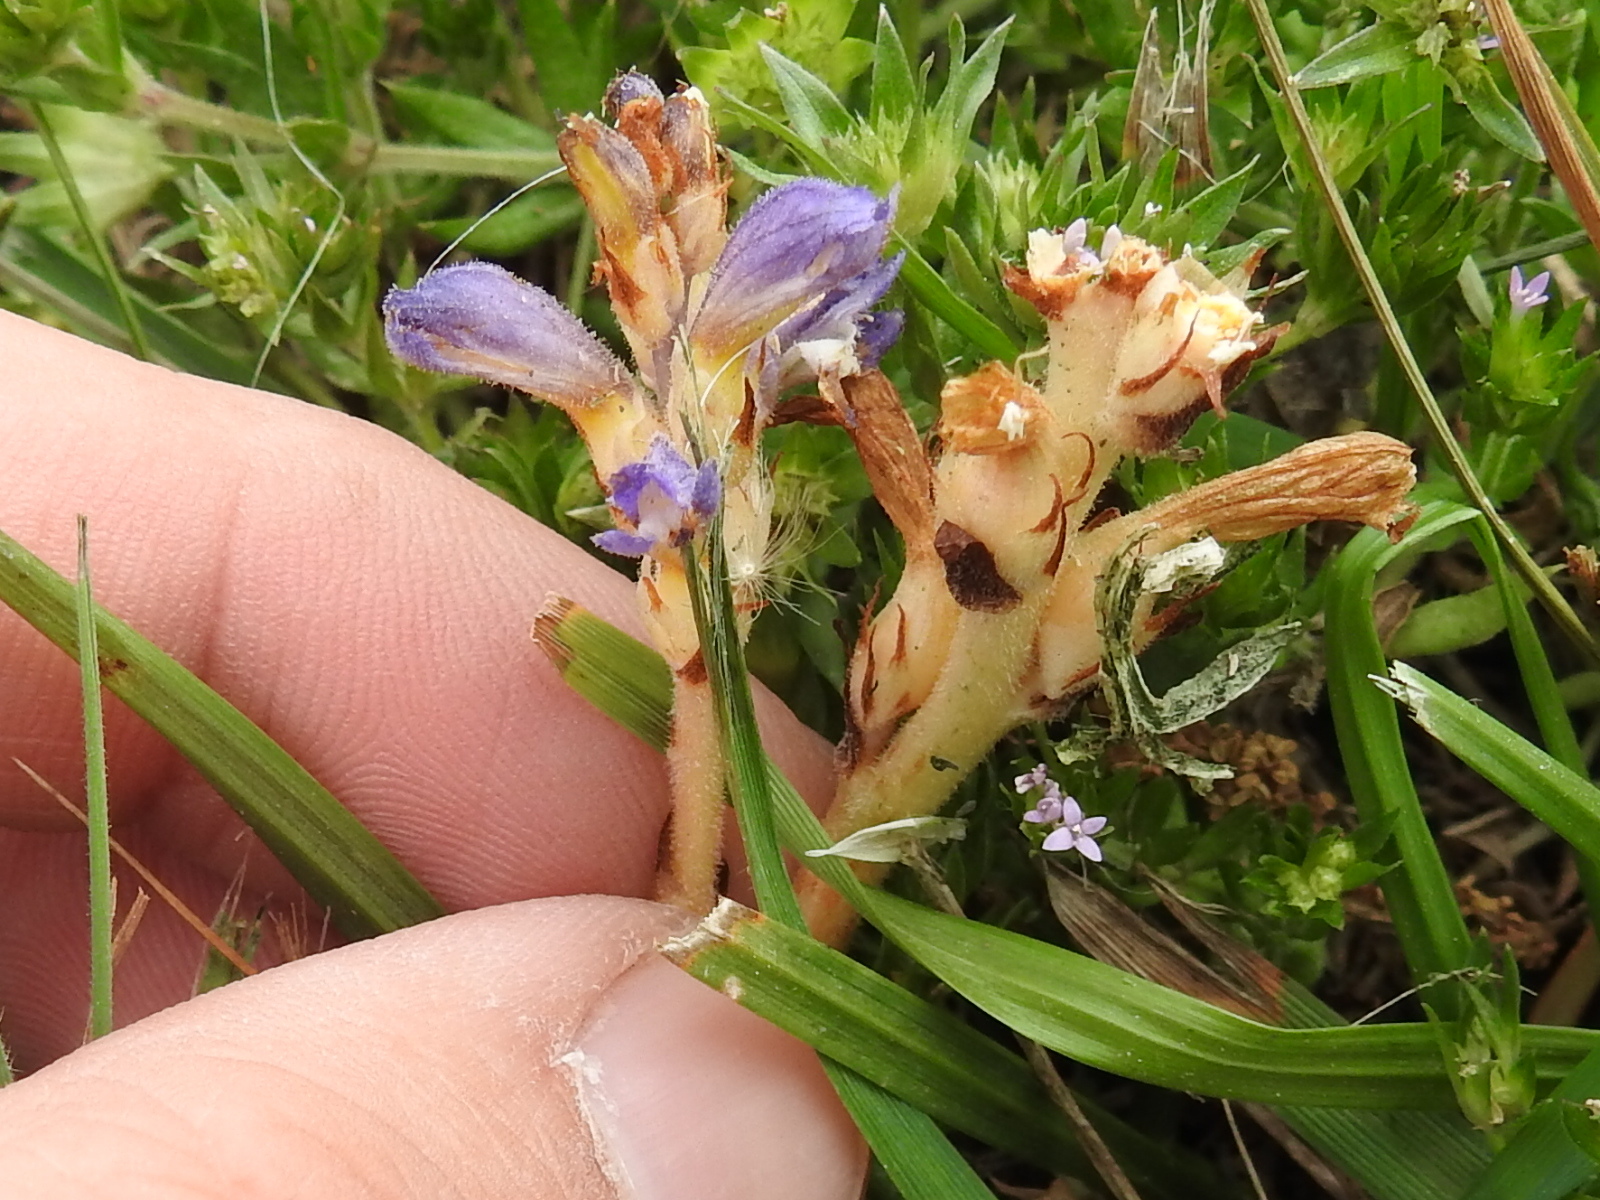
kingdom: Plantae
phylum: Tracheophyta
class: Magnoliopsida
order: Lamiales
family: Orobanchaceae
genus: Phelipanche
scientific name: Phelipanche ramosa
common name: Branched broomrape
